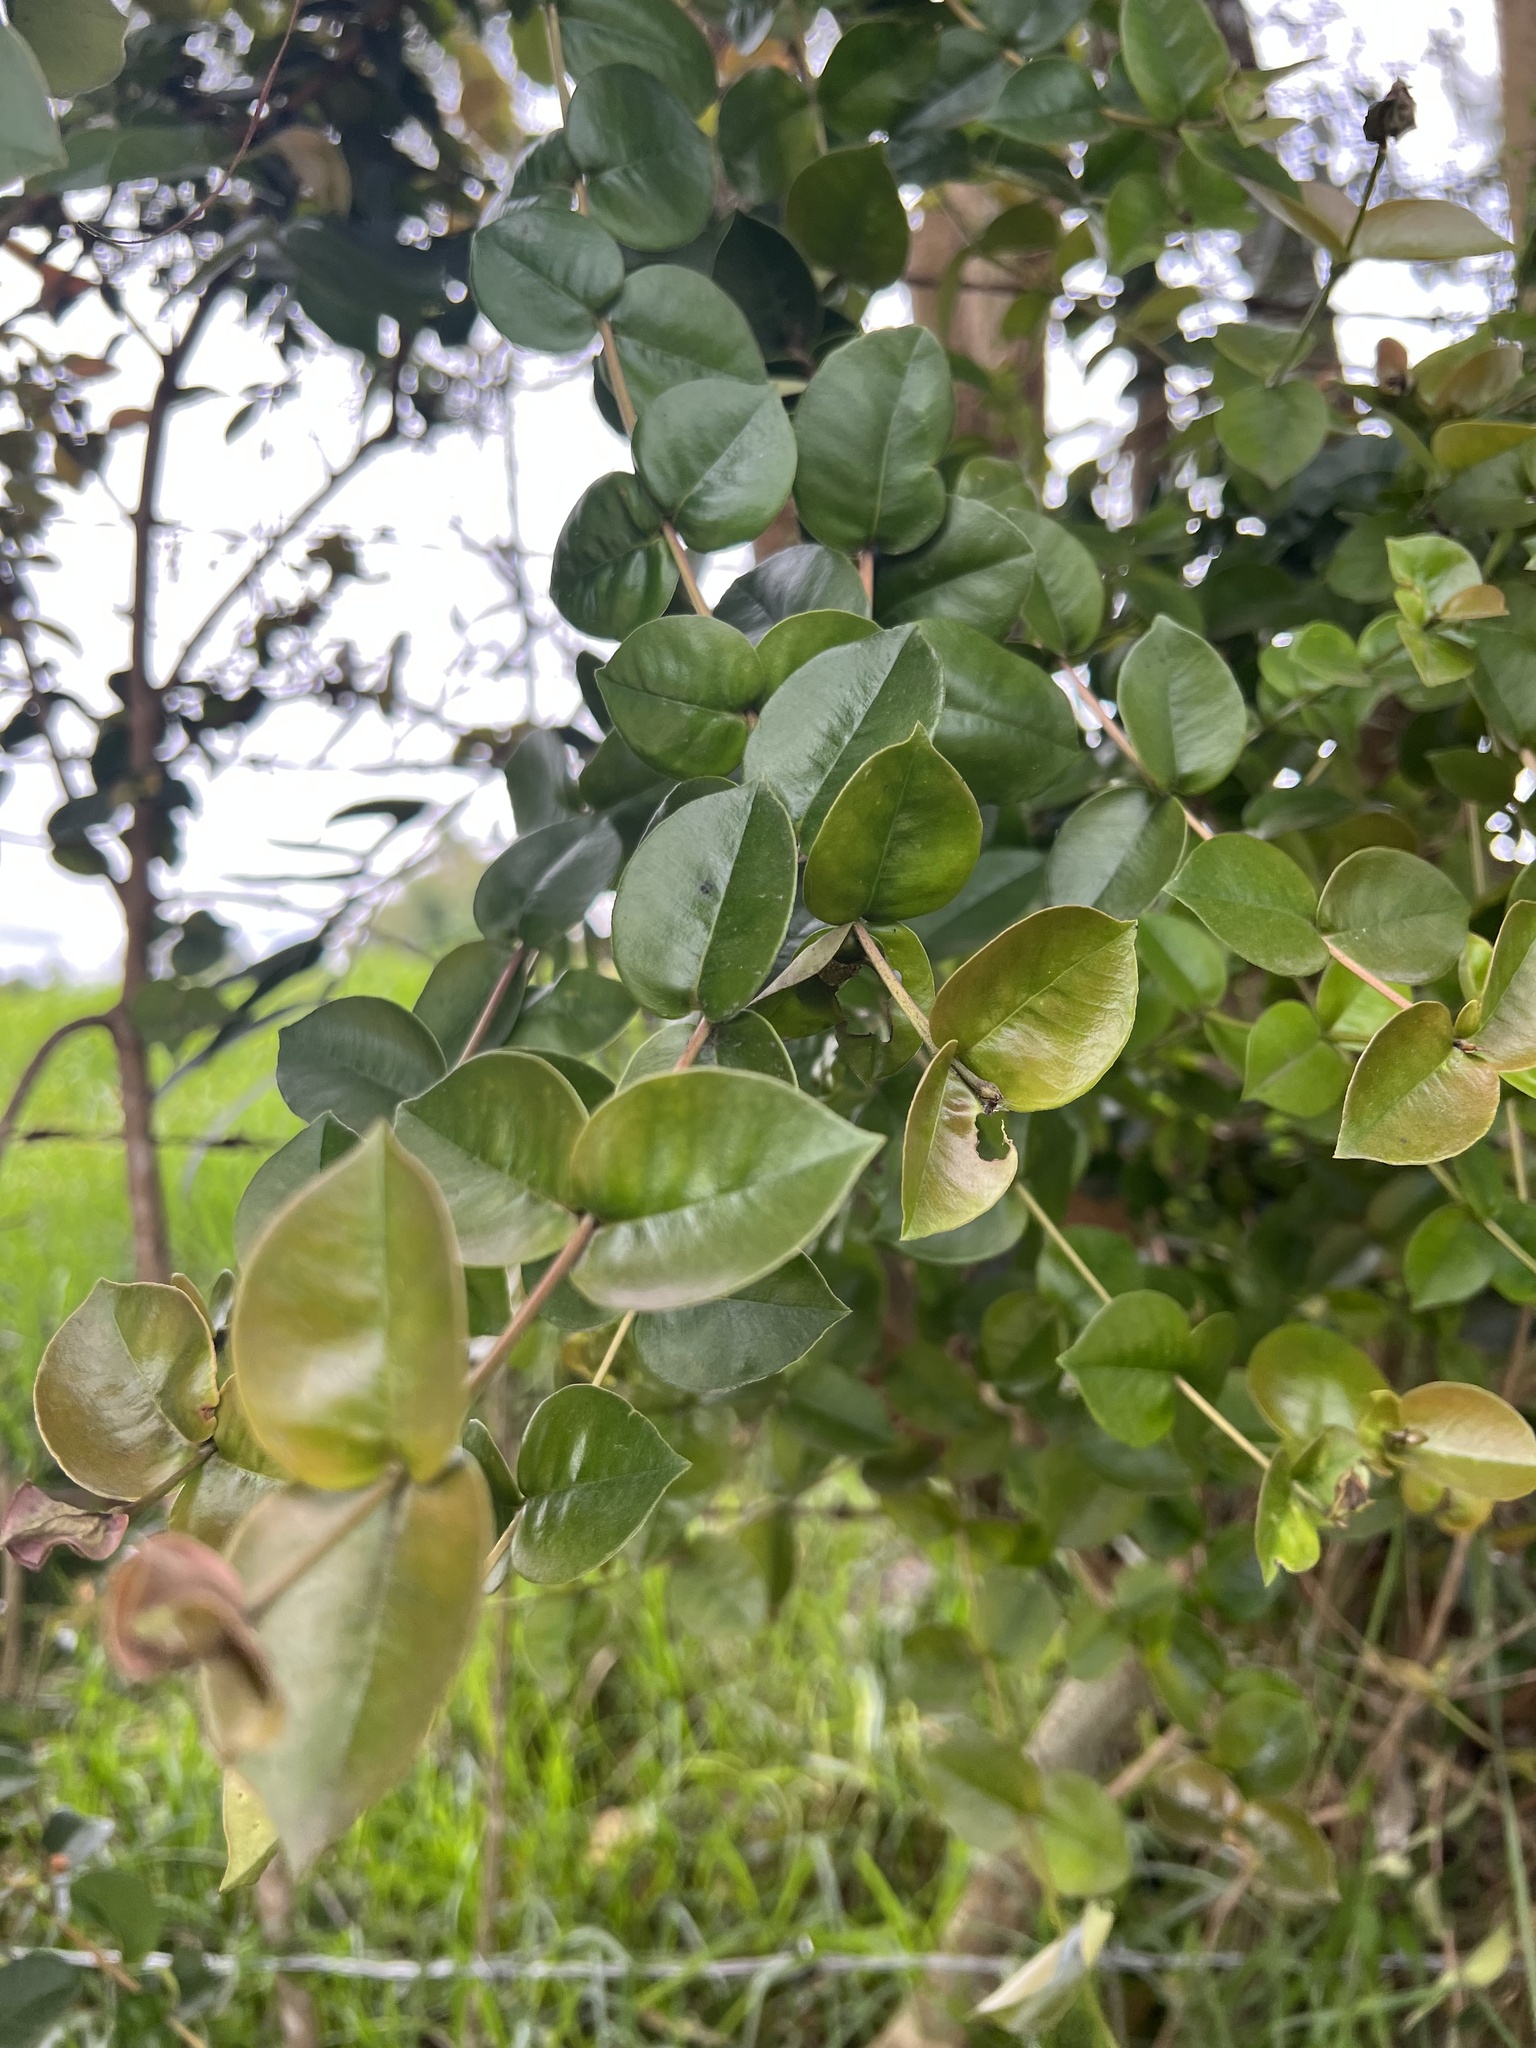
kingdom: Plantae
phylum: Tracheophyta
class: Magnoliopsida
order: Myrtales
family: Myrtaceae
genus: Myrcianthes
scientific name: Myrcianthes leucoxyla
